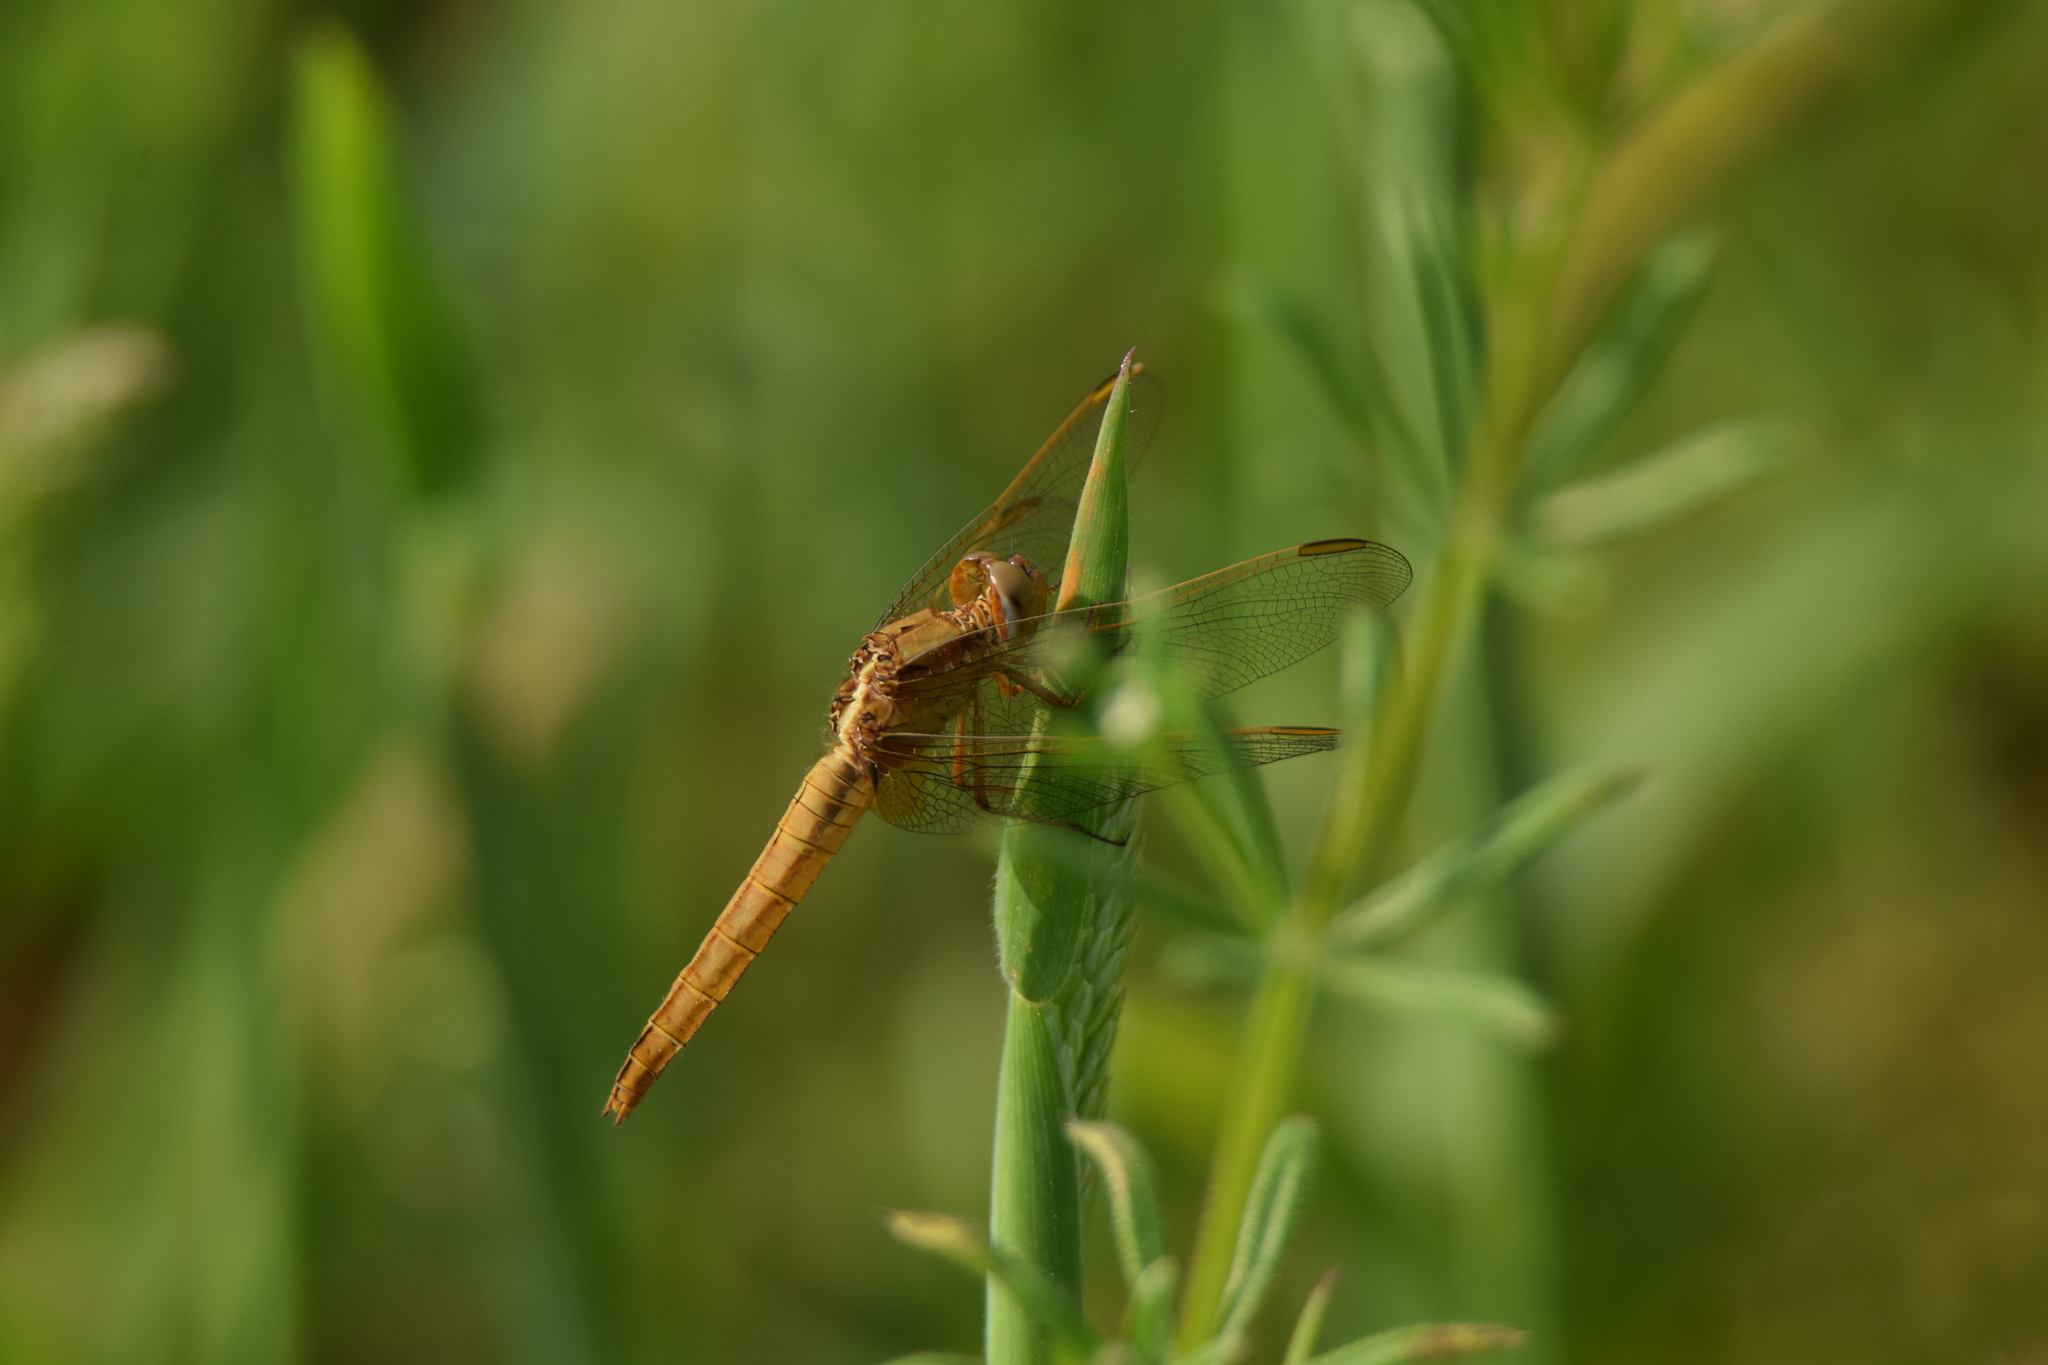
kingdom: Animalia
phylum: Arthropoda
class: Insecta
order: Odonata
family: Libellulidae
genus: Crocothemis
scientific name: Crocothemis erythraea
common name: Scarlet dragonfly
